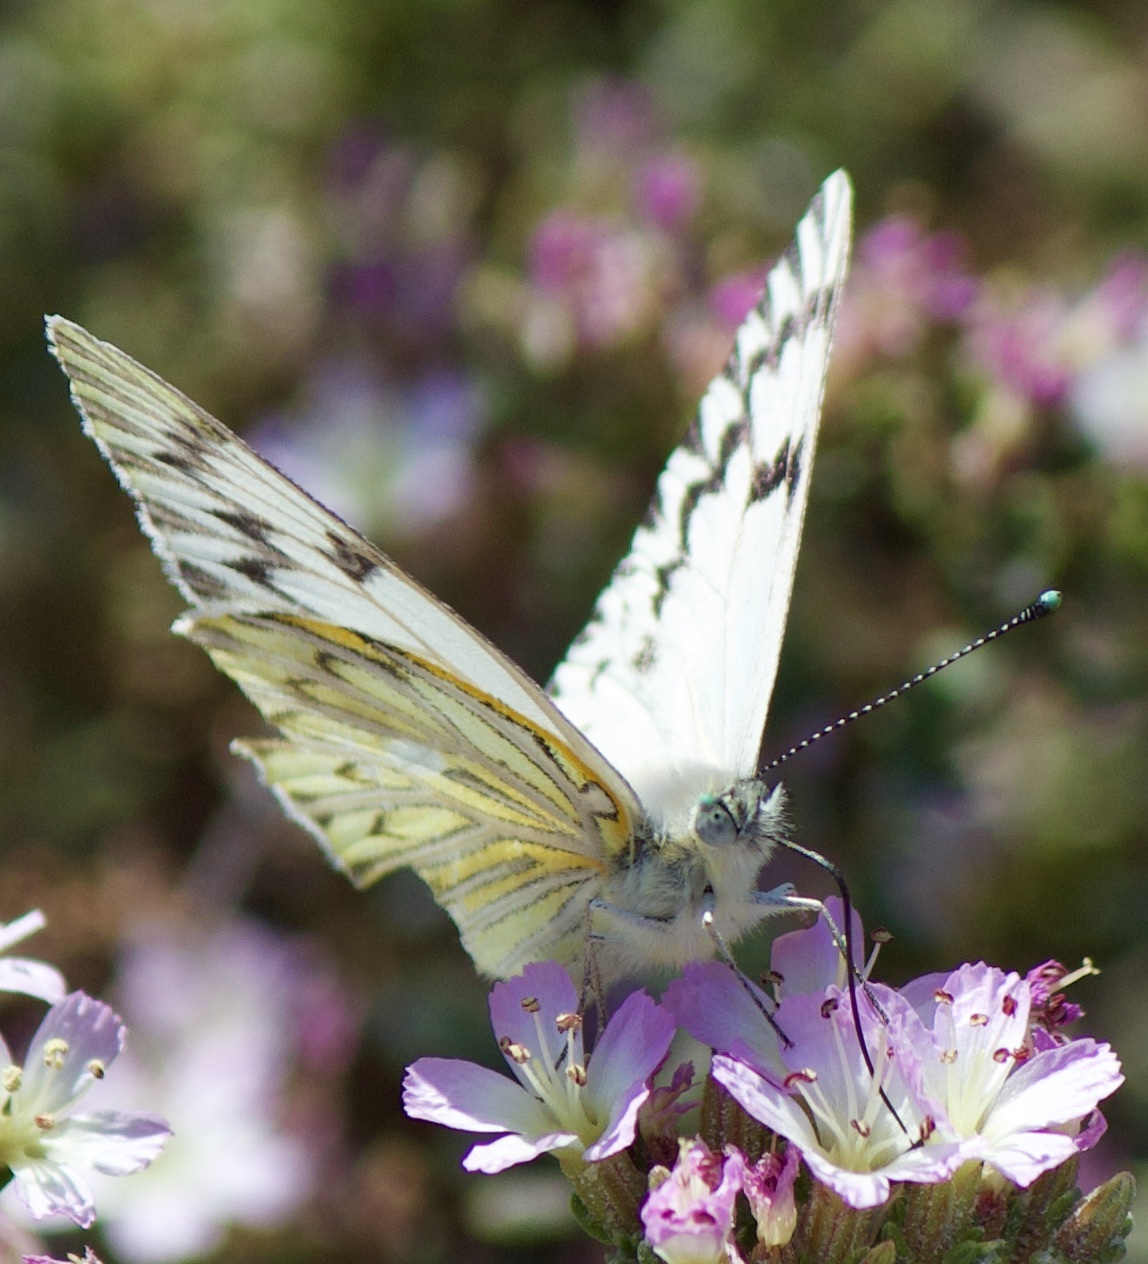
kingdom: Animalia
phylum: Arthropoda
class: Insecta
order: Lepidoptera
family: Pieridae
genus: Tatochila
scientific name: Tatochila mercedis
